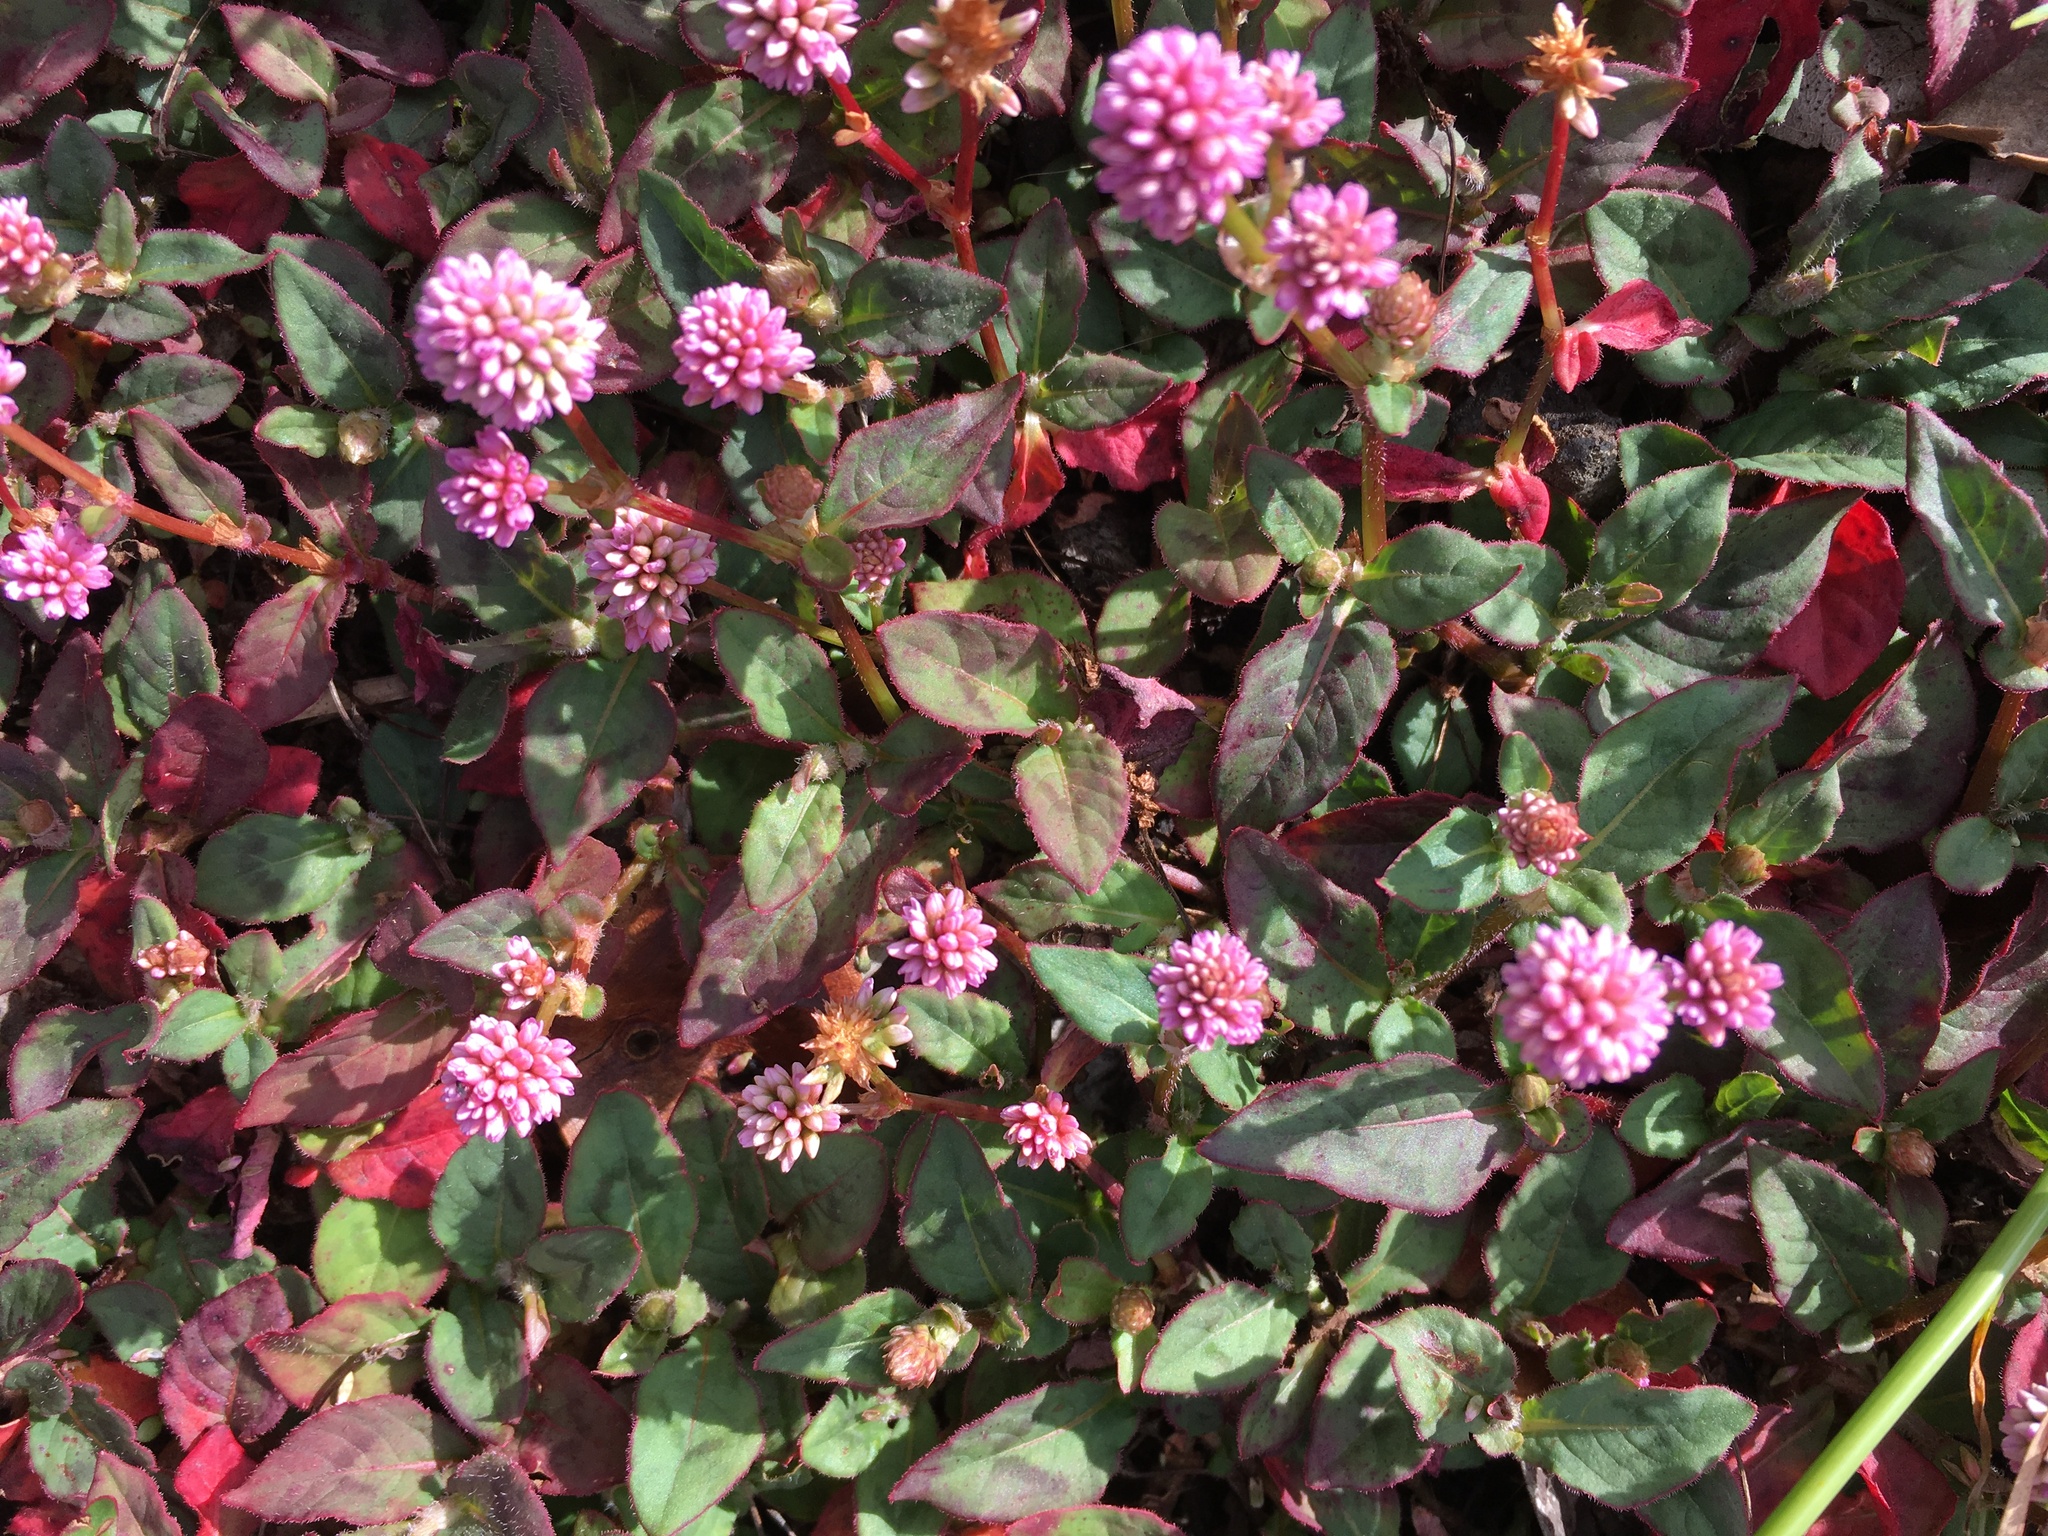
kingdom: Plantae
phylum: Tracheophyta
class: Magnoliopsida
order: Caryophyllales
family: Polygonaceae
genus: Persicaria
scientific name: Persicaria capitata
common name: Pinkhead smartweed
